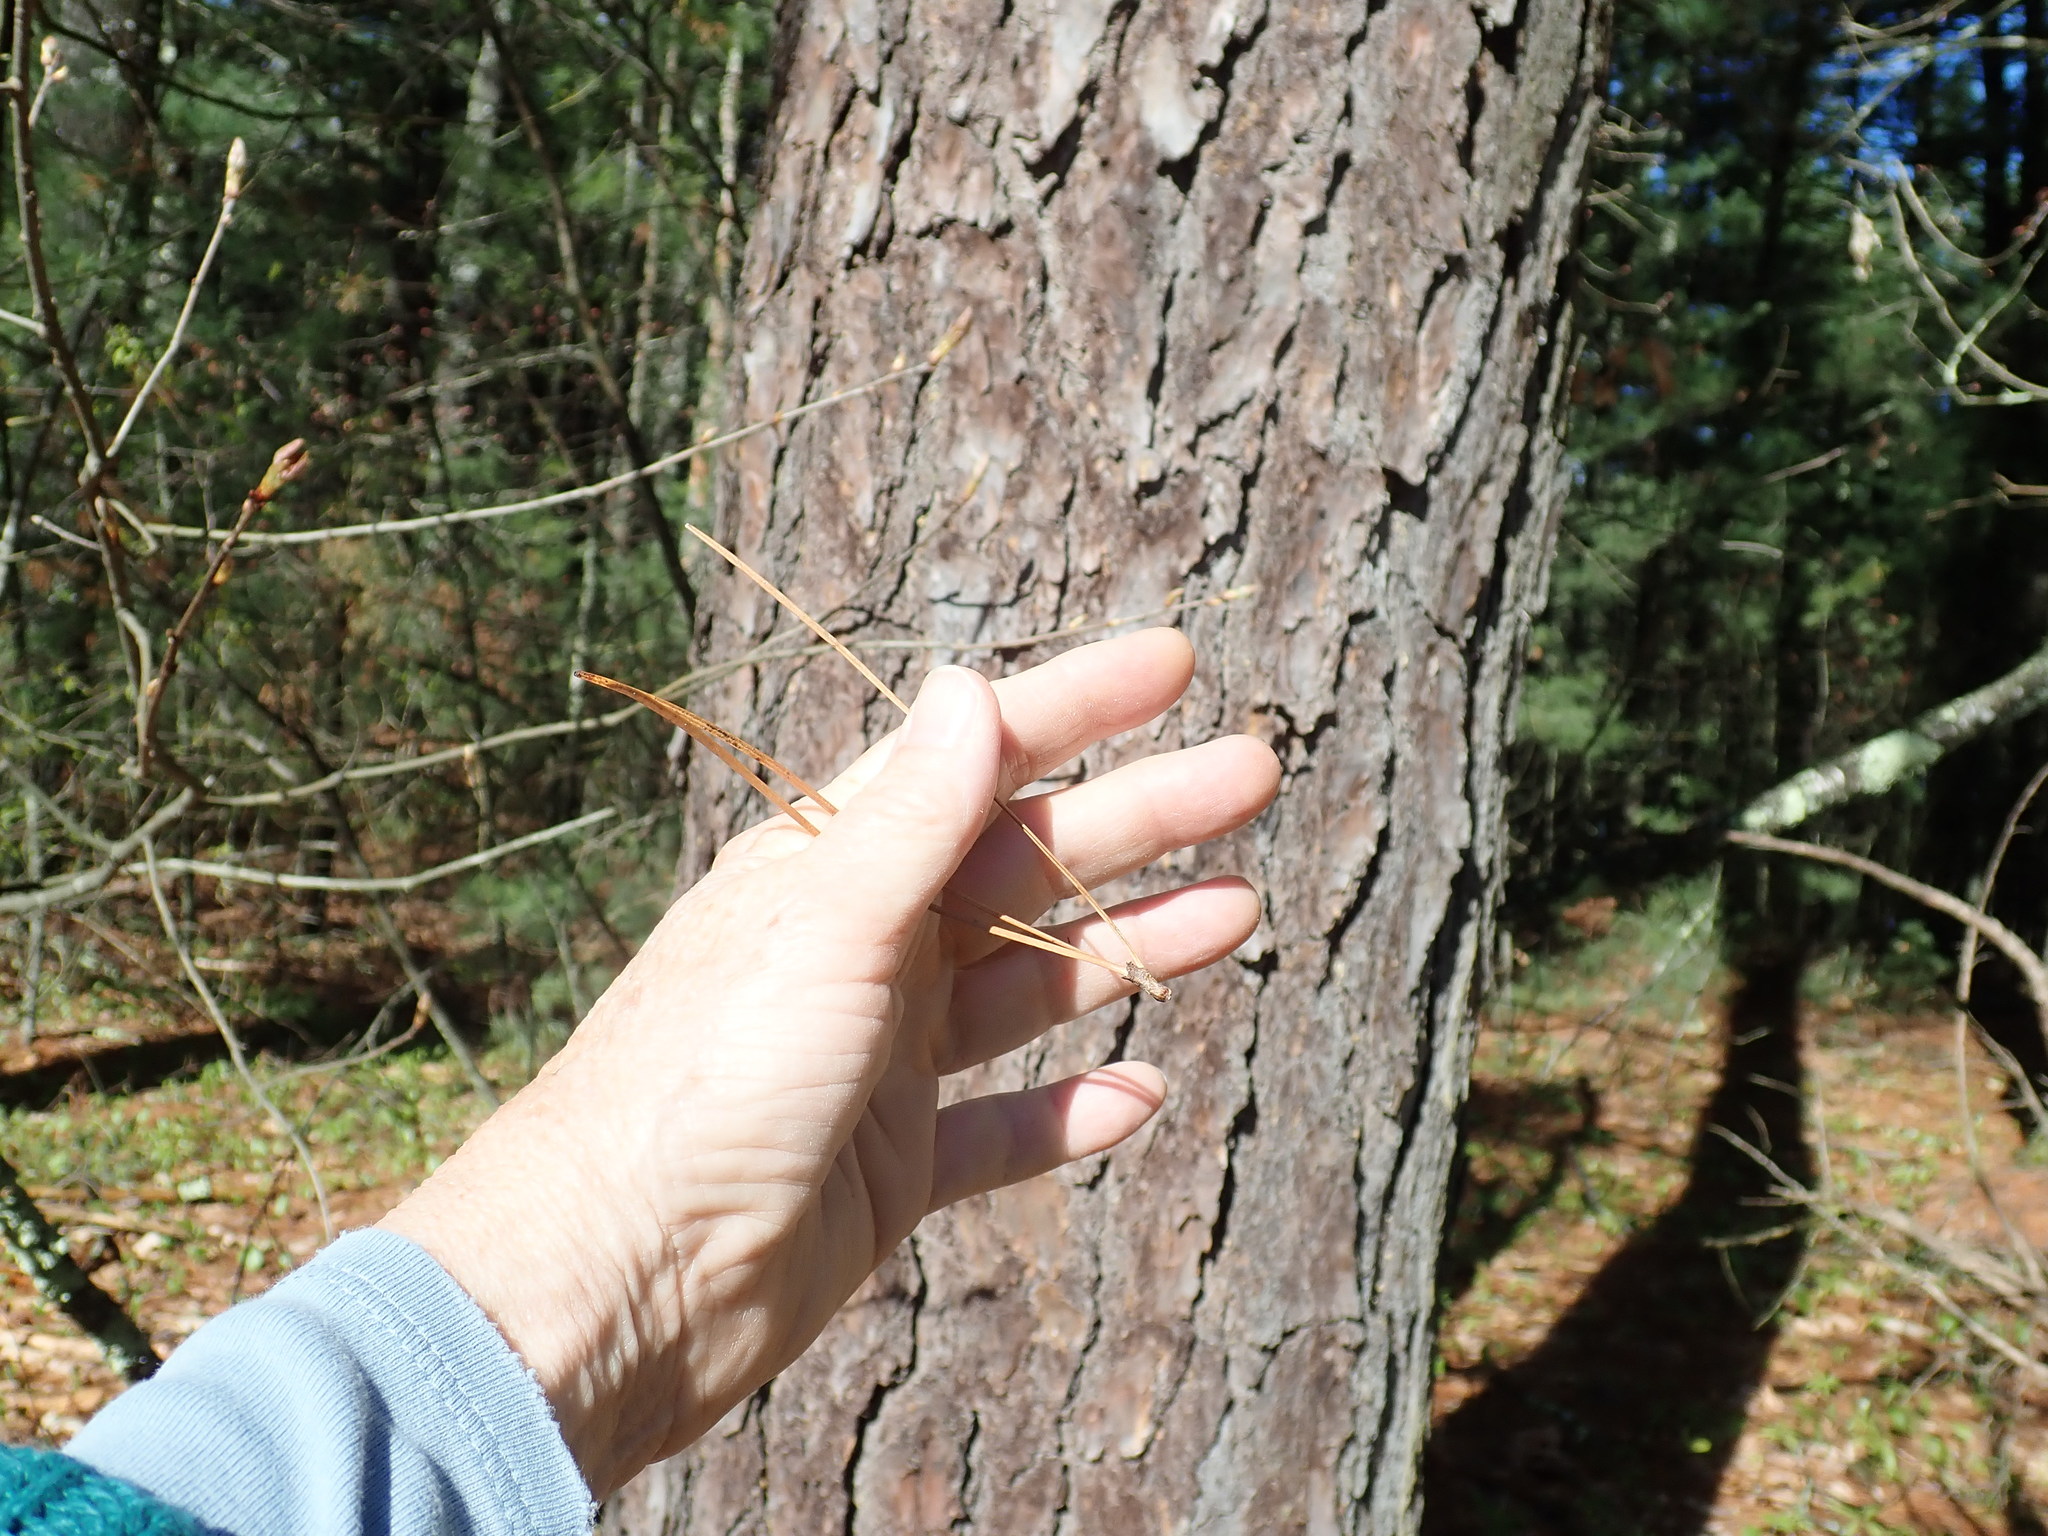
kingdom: Plantae
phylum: Tracheophyta
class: Pinopsida
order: Pinales
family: Pinaceae
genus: Pinus
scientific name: Pinus rigida
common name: Pitch pine
